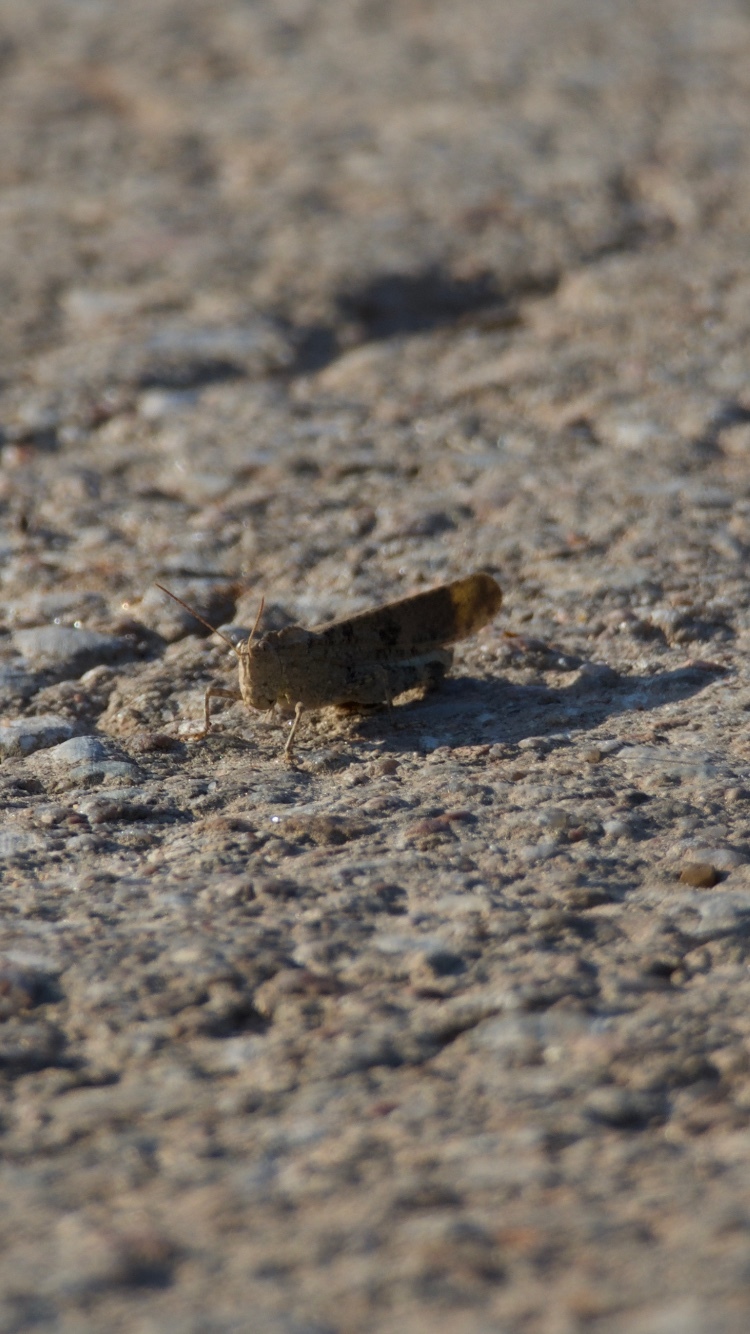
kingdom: Animalia
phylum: Arthropoda
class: Insecta
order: Orthoptera
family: Acrididae
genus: Dissosteira
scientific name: Dissosteira carolina
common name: Carolina grasshopper
